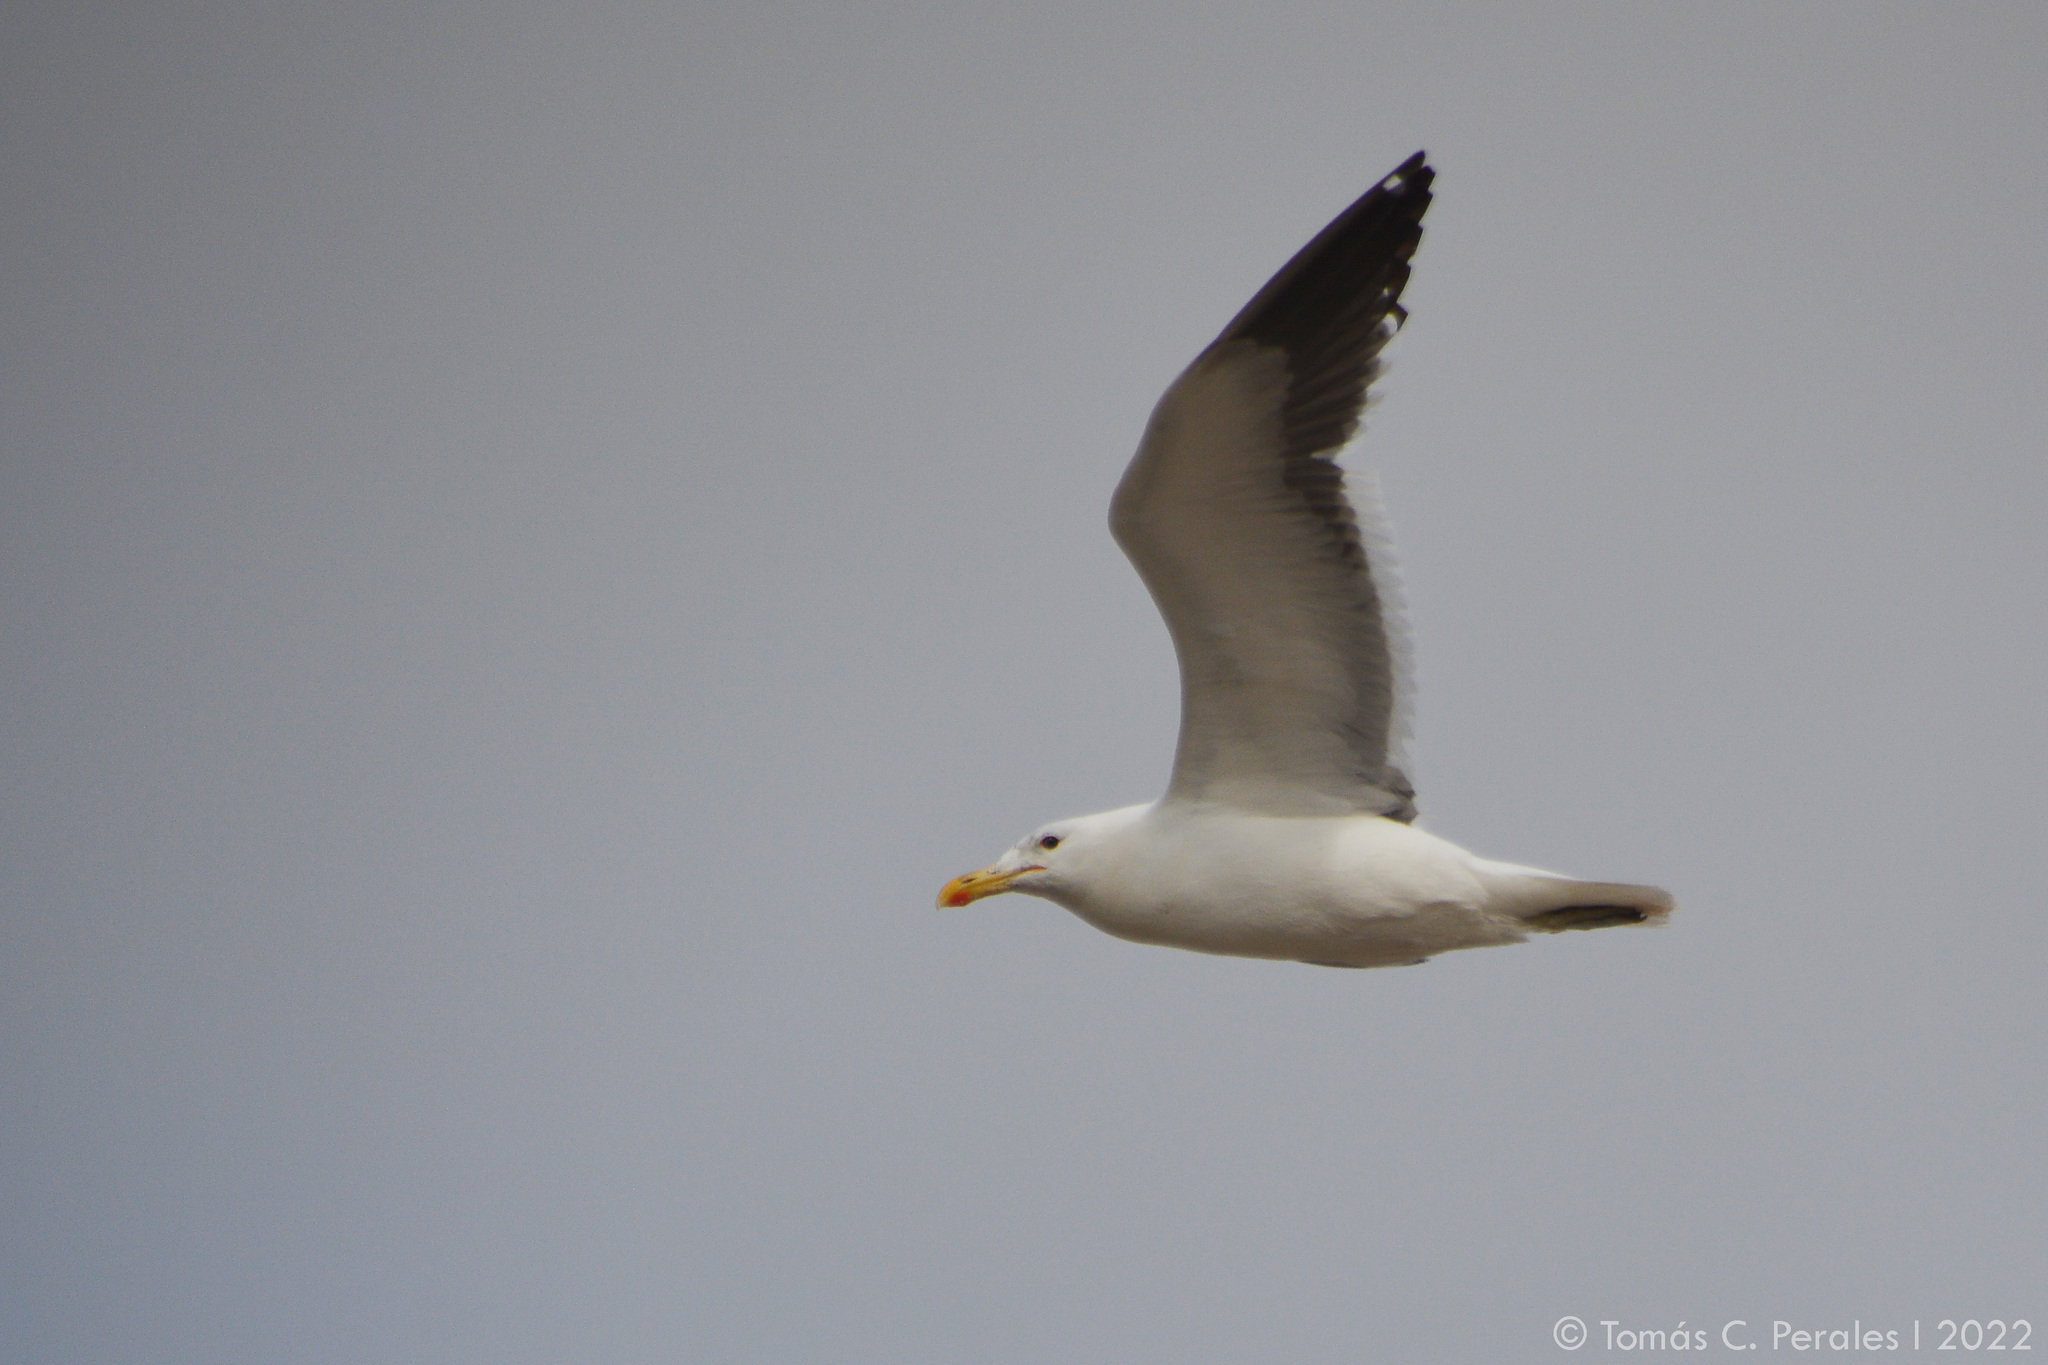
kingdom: Animalia
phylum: Chordata
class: Aves
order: Charadriiformes
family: Laridae
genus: Larus
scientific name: Larus dominicanus
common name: Kelp gull
